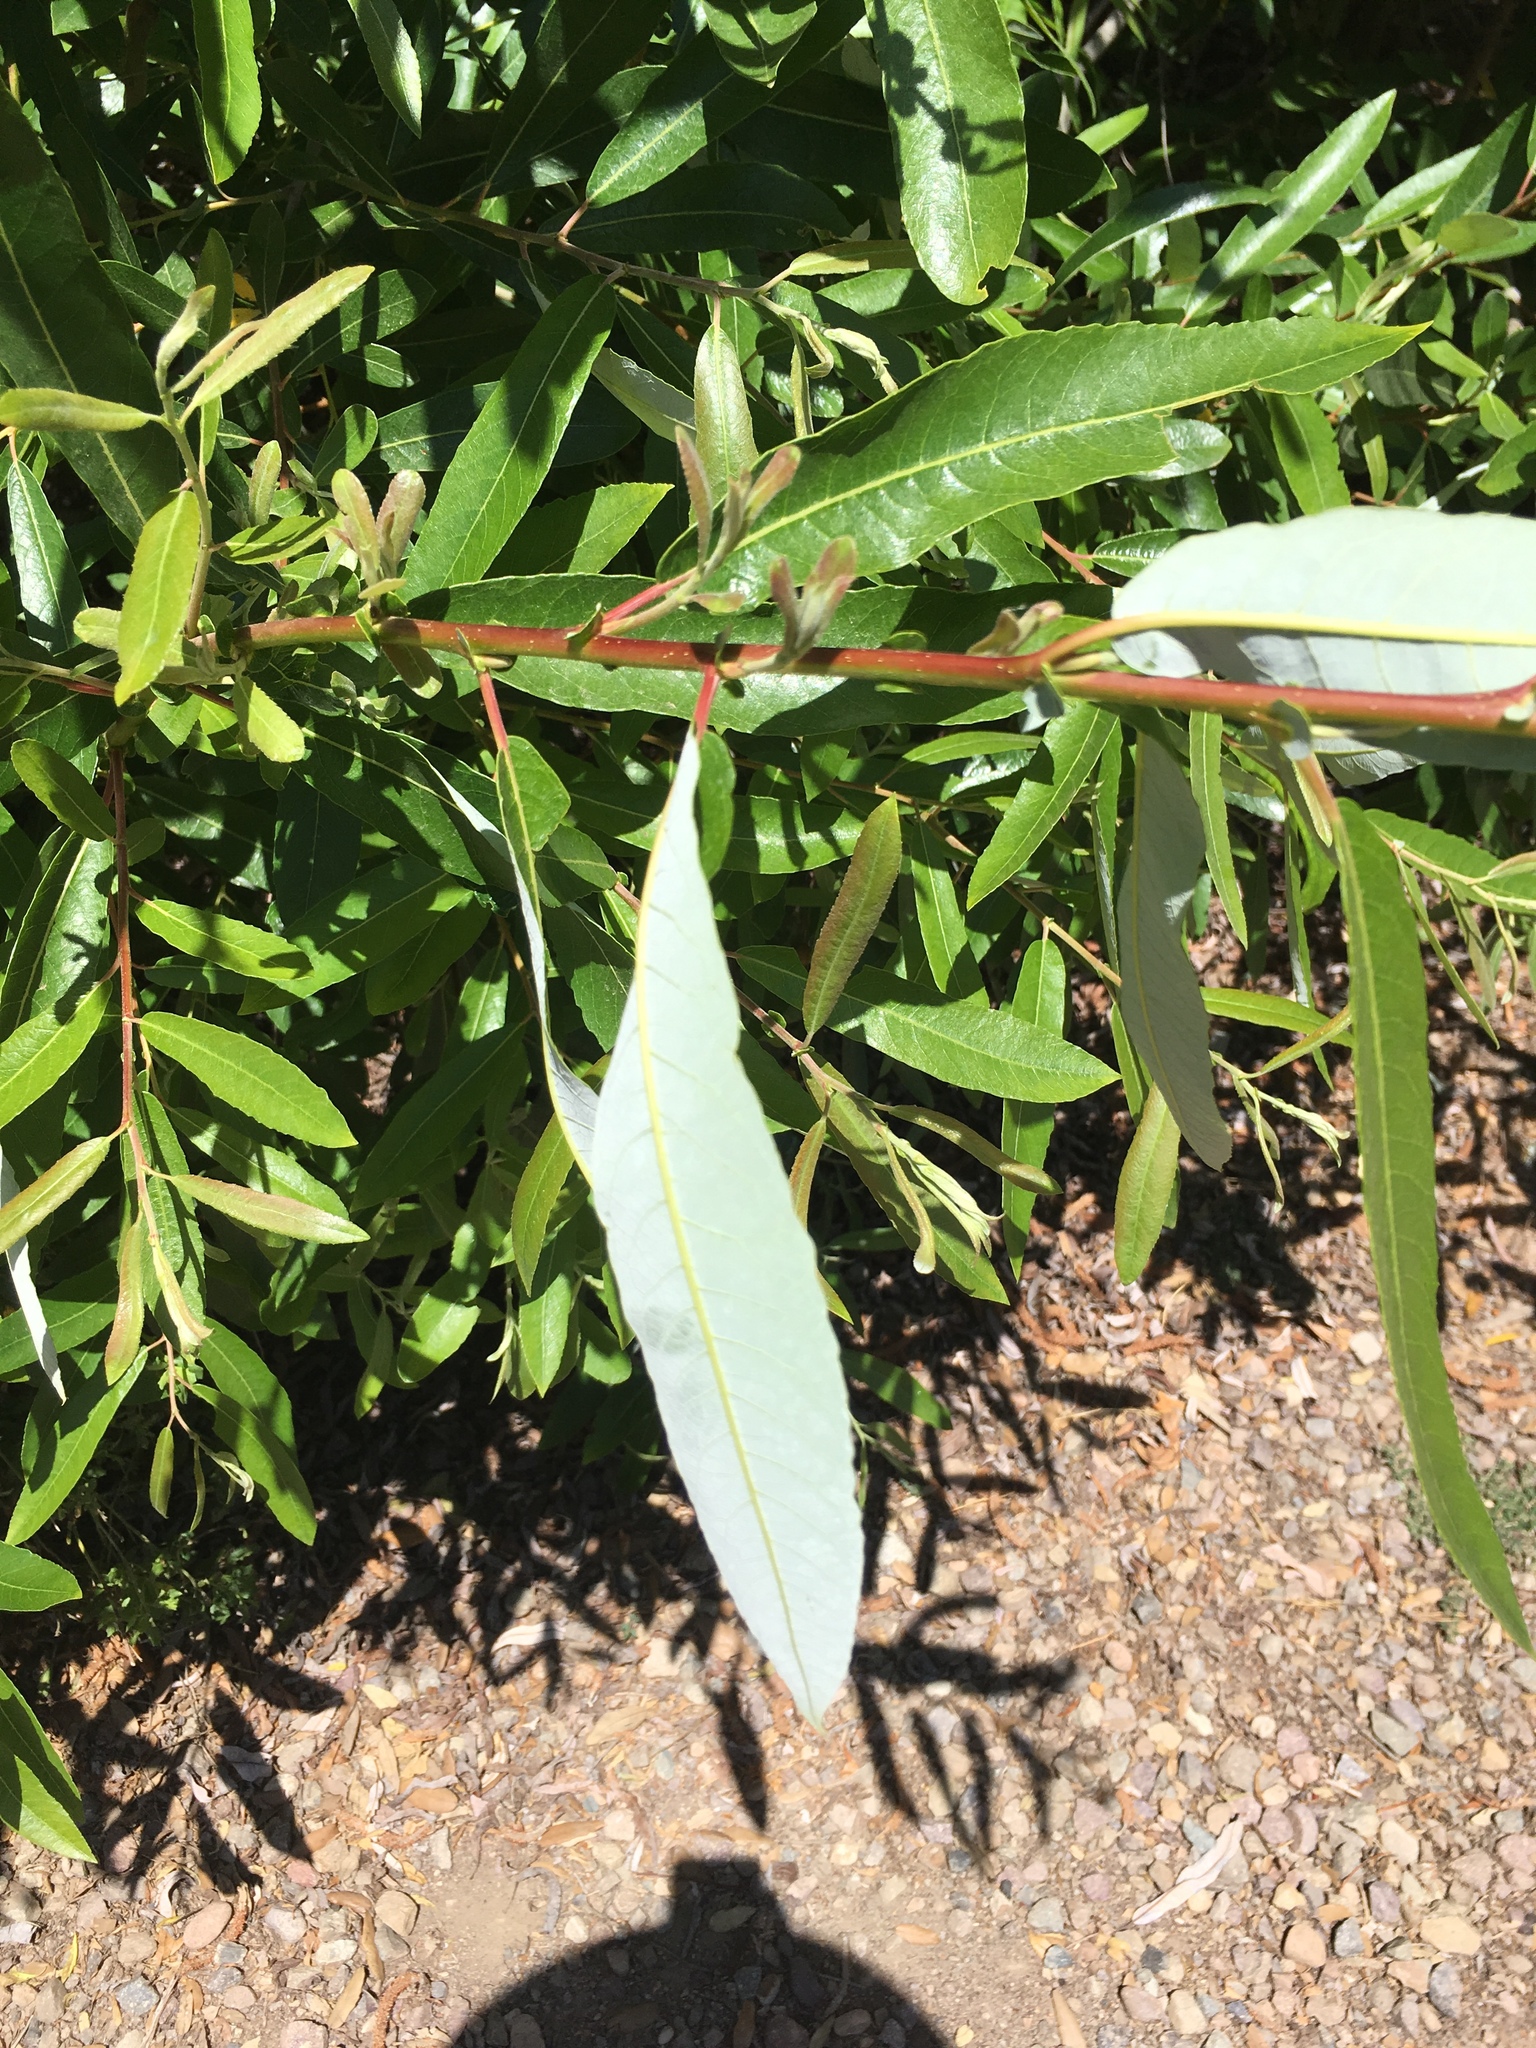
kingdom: Plantae
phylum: Tracheophyta
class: Magnoliopsida
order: Malpighiales
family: Salicaceae
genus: Salix
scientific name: Salix lasiolepis
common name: Arroyo willow
